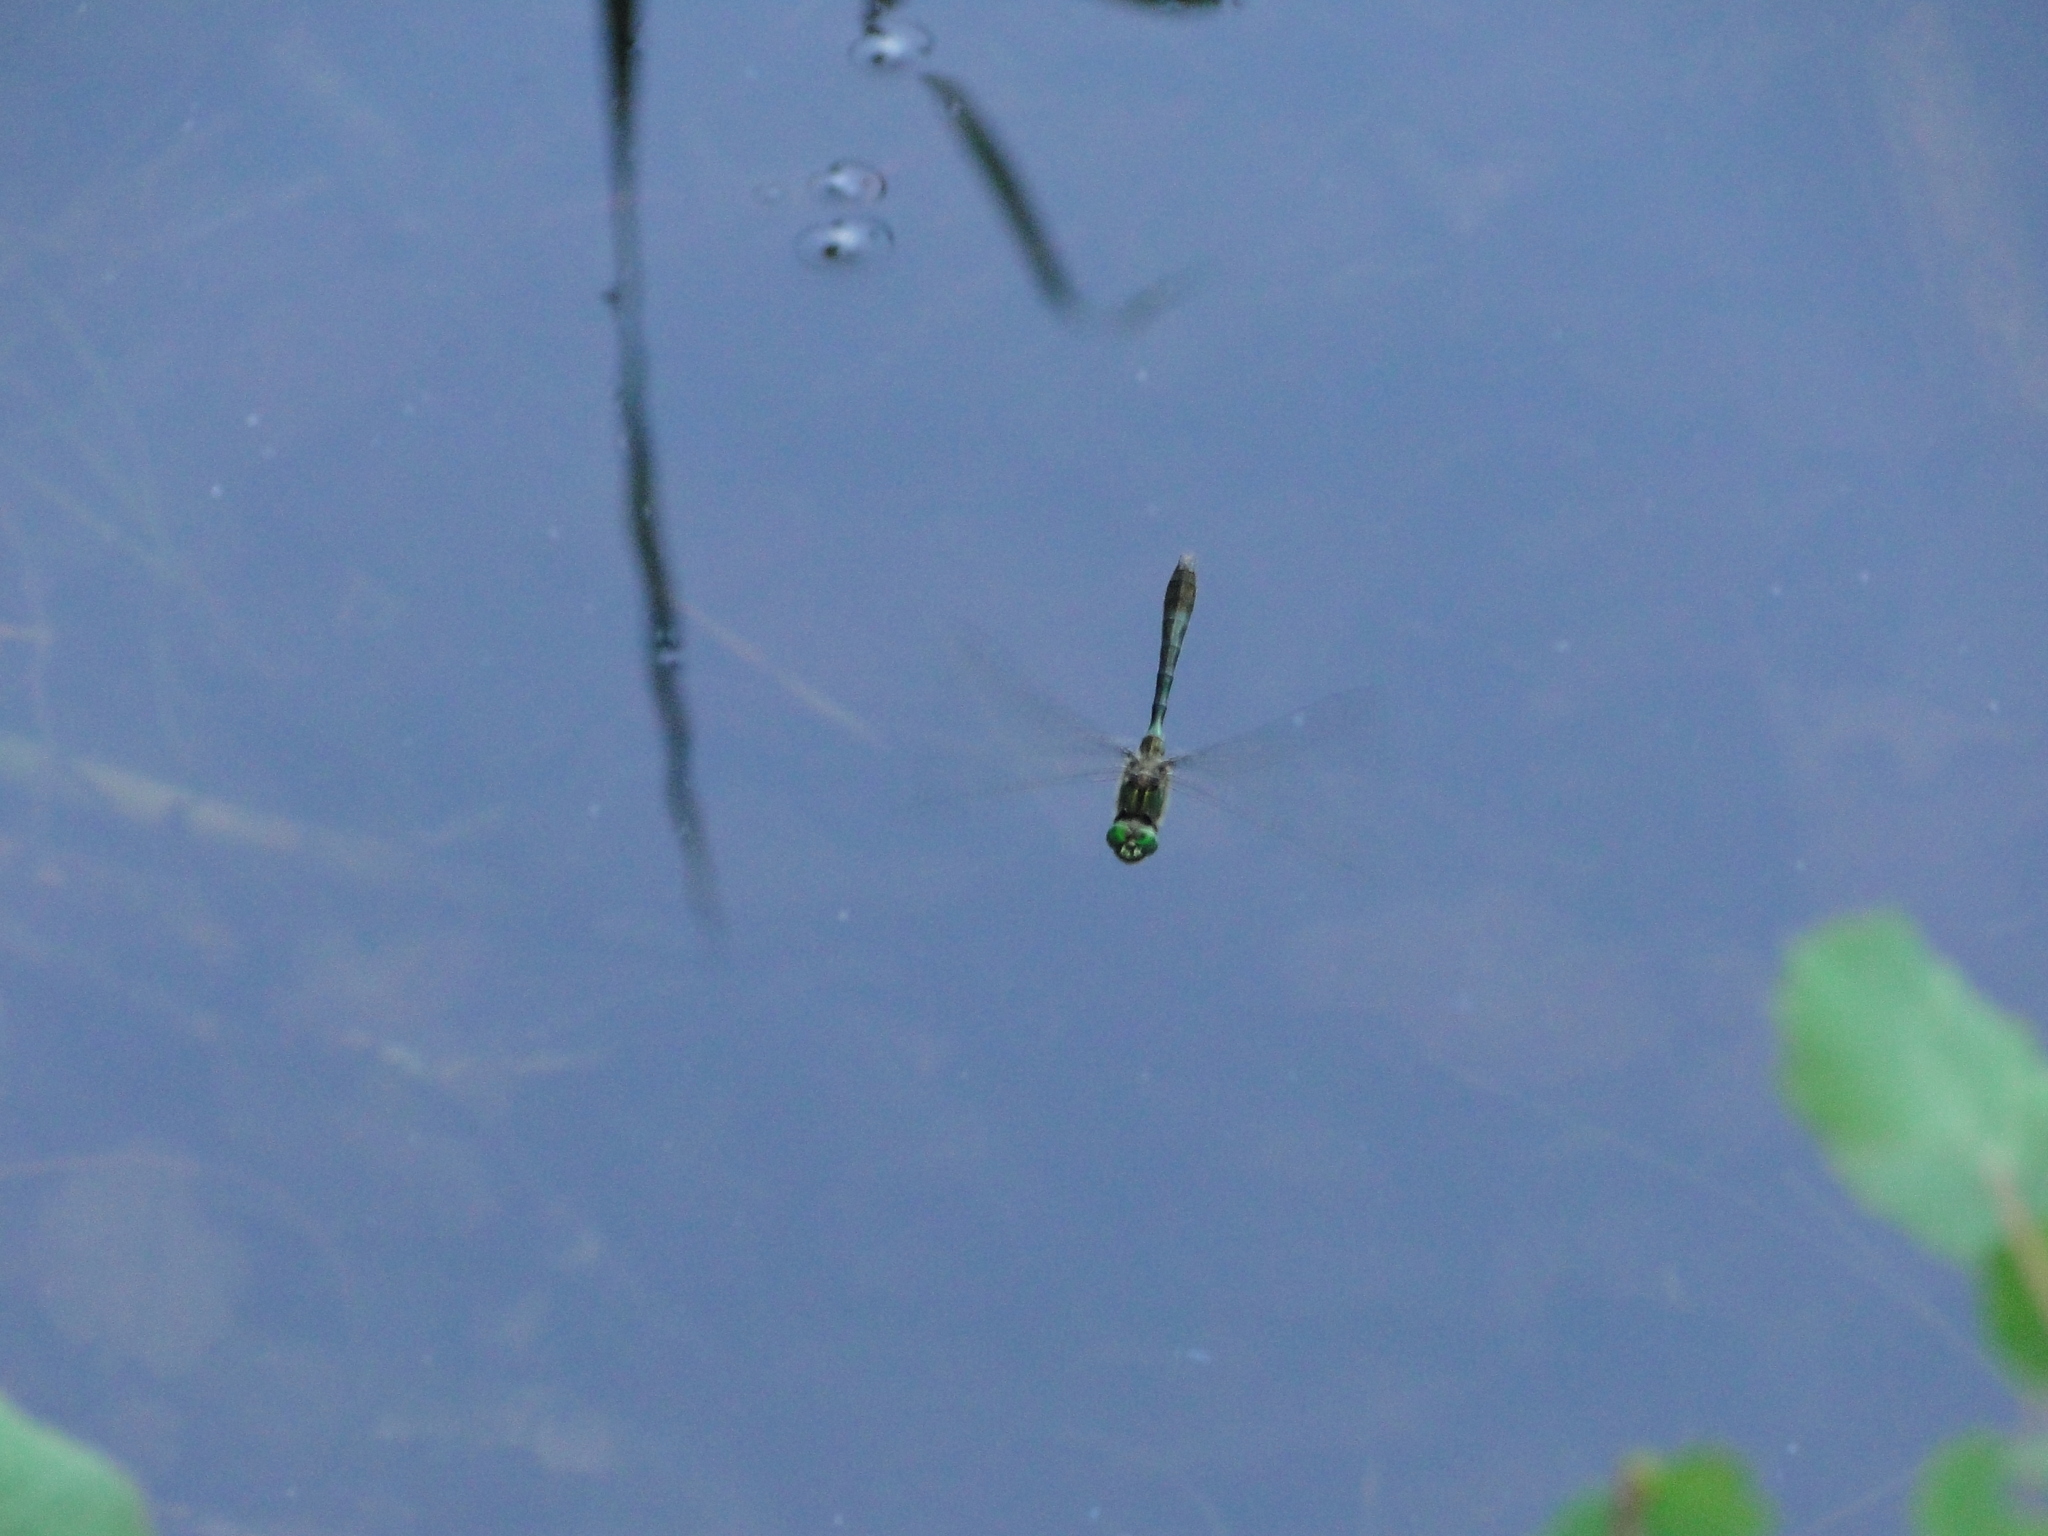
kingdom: Animalia
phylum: Arthropoda
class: Insecta
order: Odonata
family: Corduliidae
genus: Cordulia
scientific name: Cordulia aenea
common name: Downy emerald
